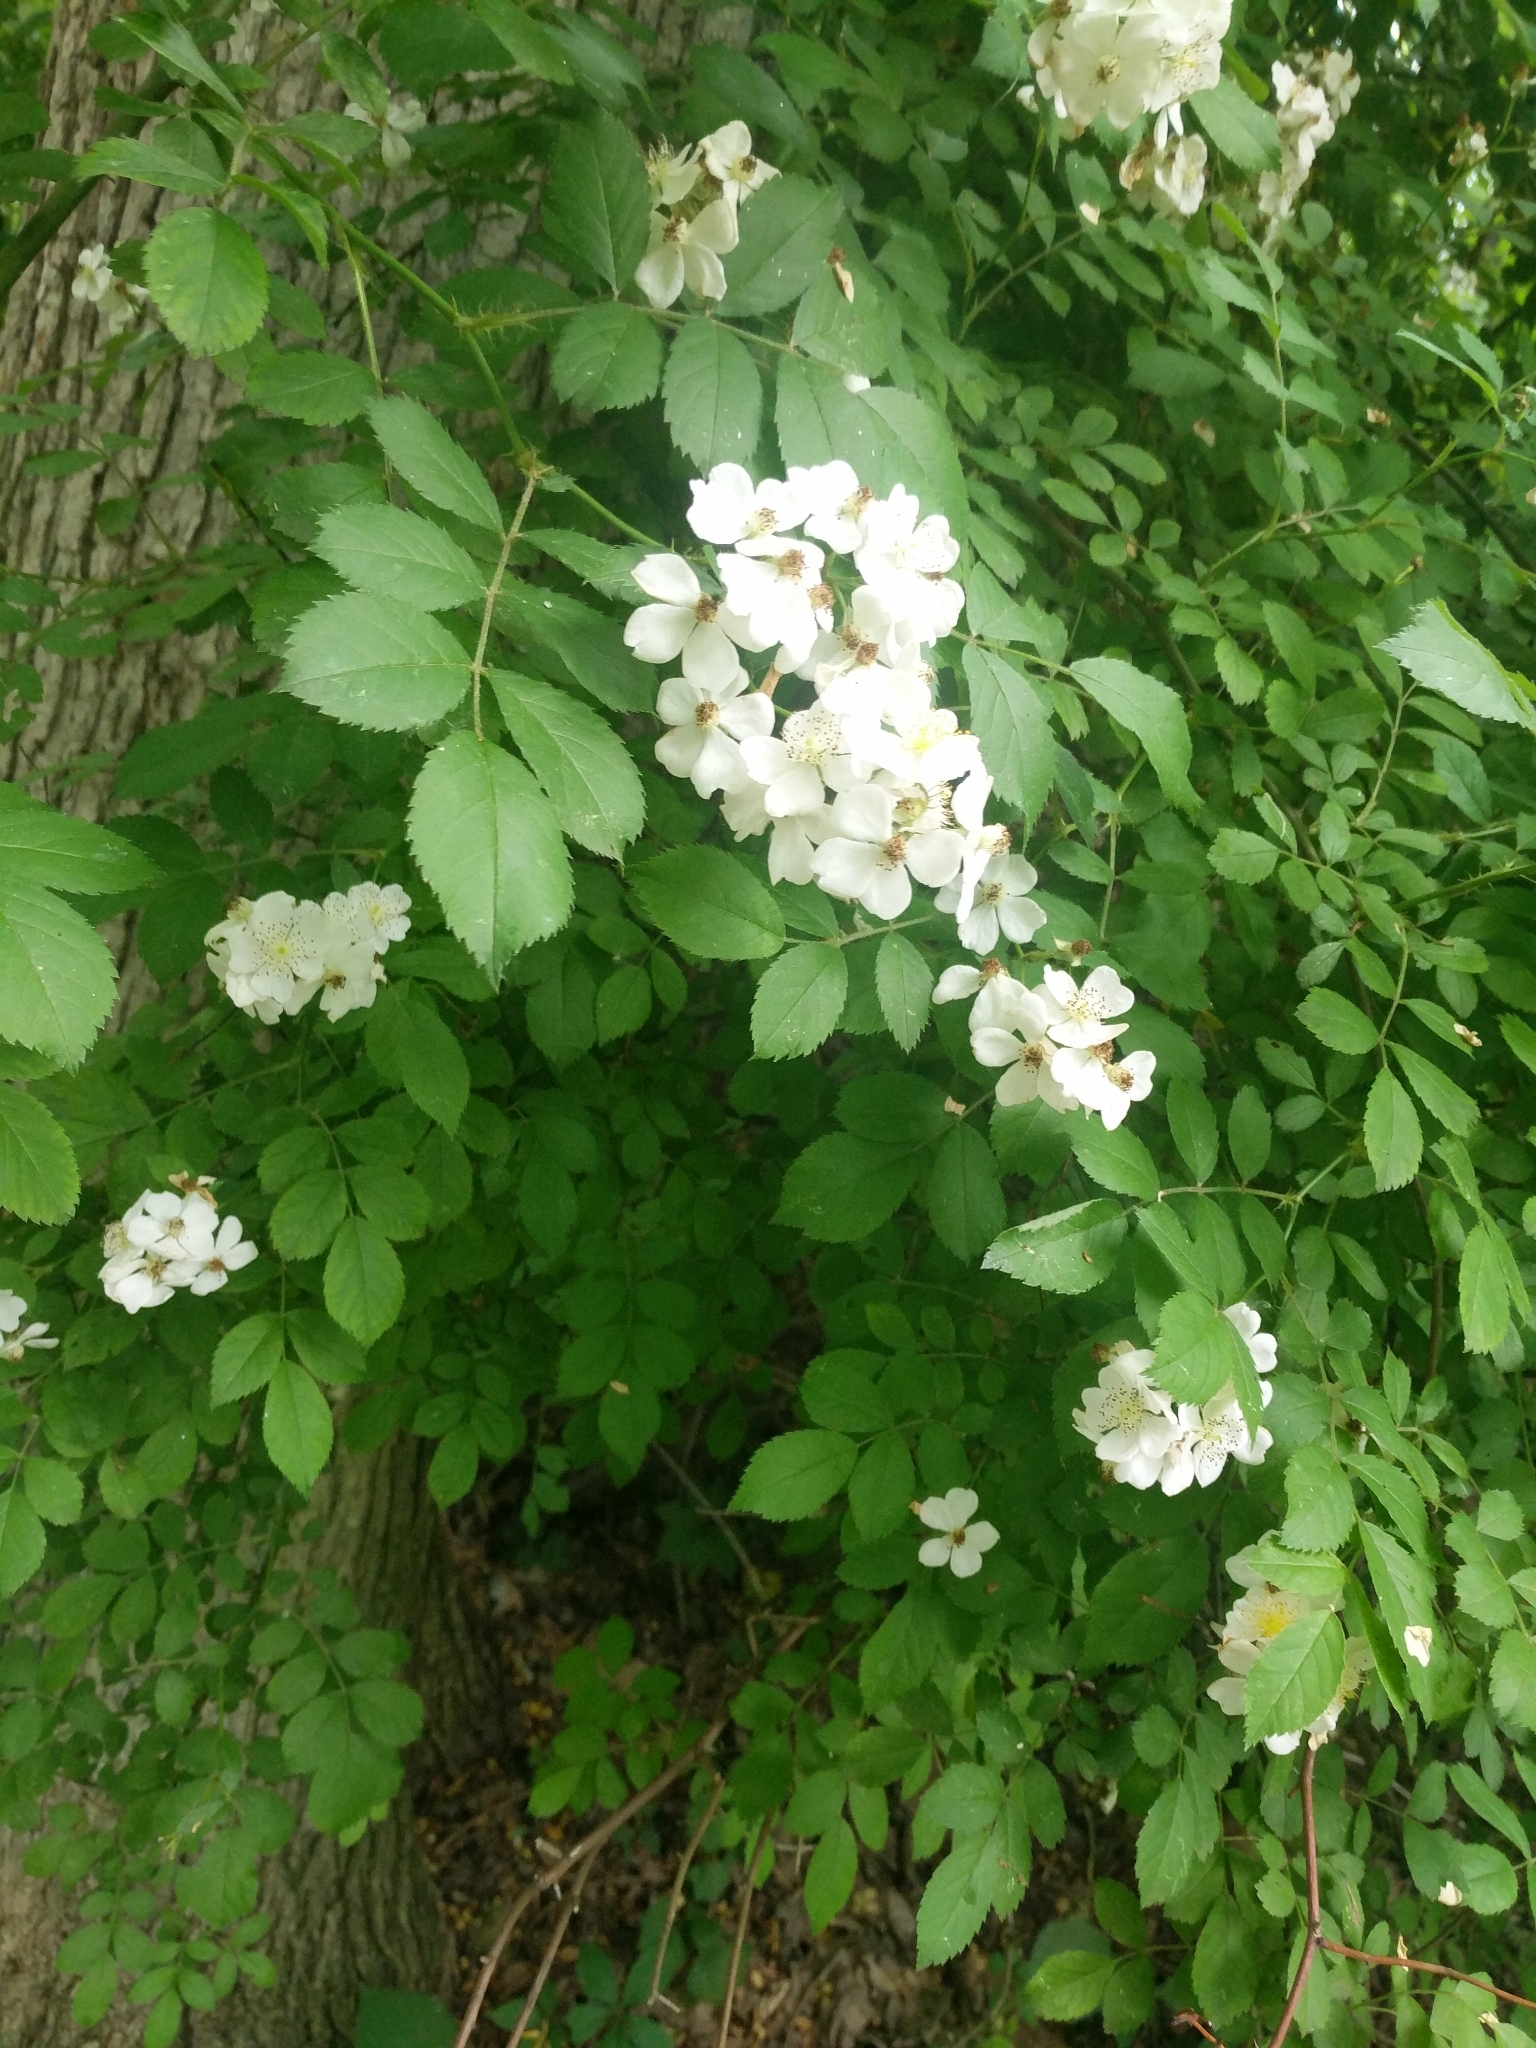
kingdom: Plantae
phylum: Tracheophyta
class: Magnoliopsida
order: Rosales
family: Rosaceae
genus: Rosa
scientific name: Rosa multiflora
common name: Multiflora rose
